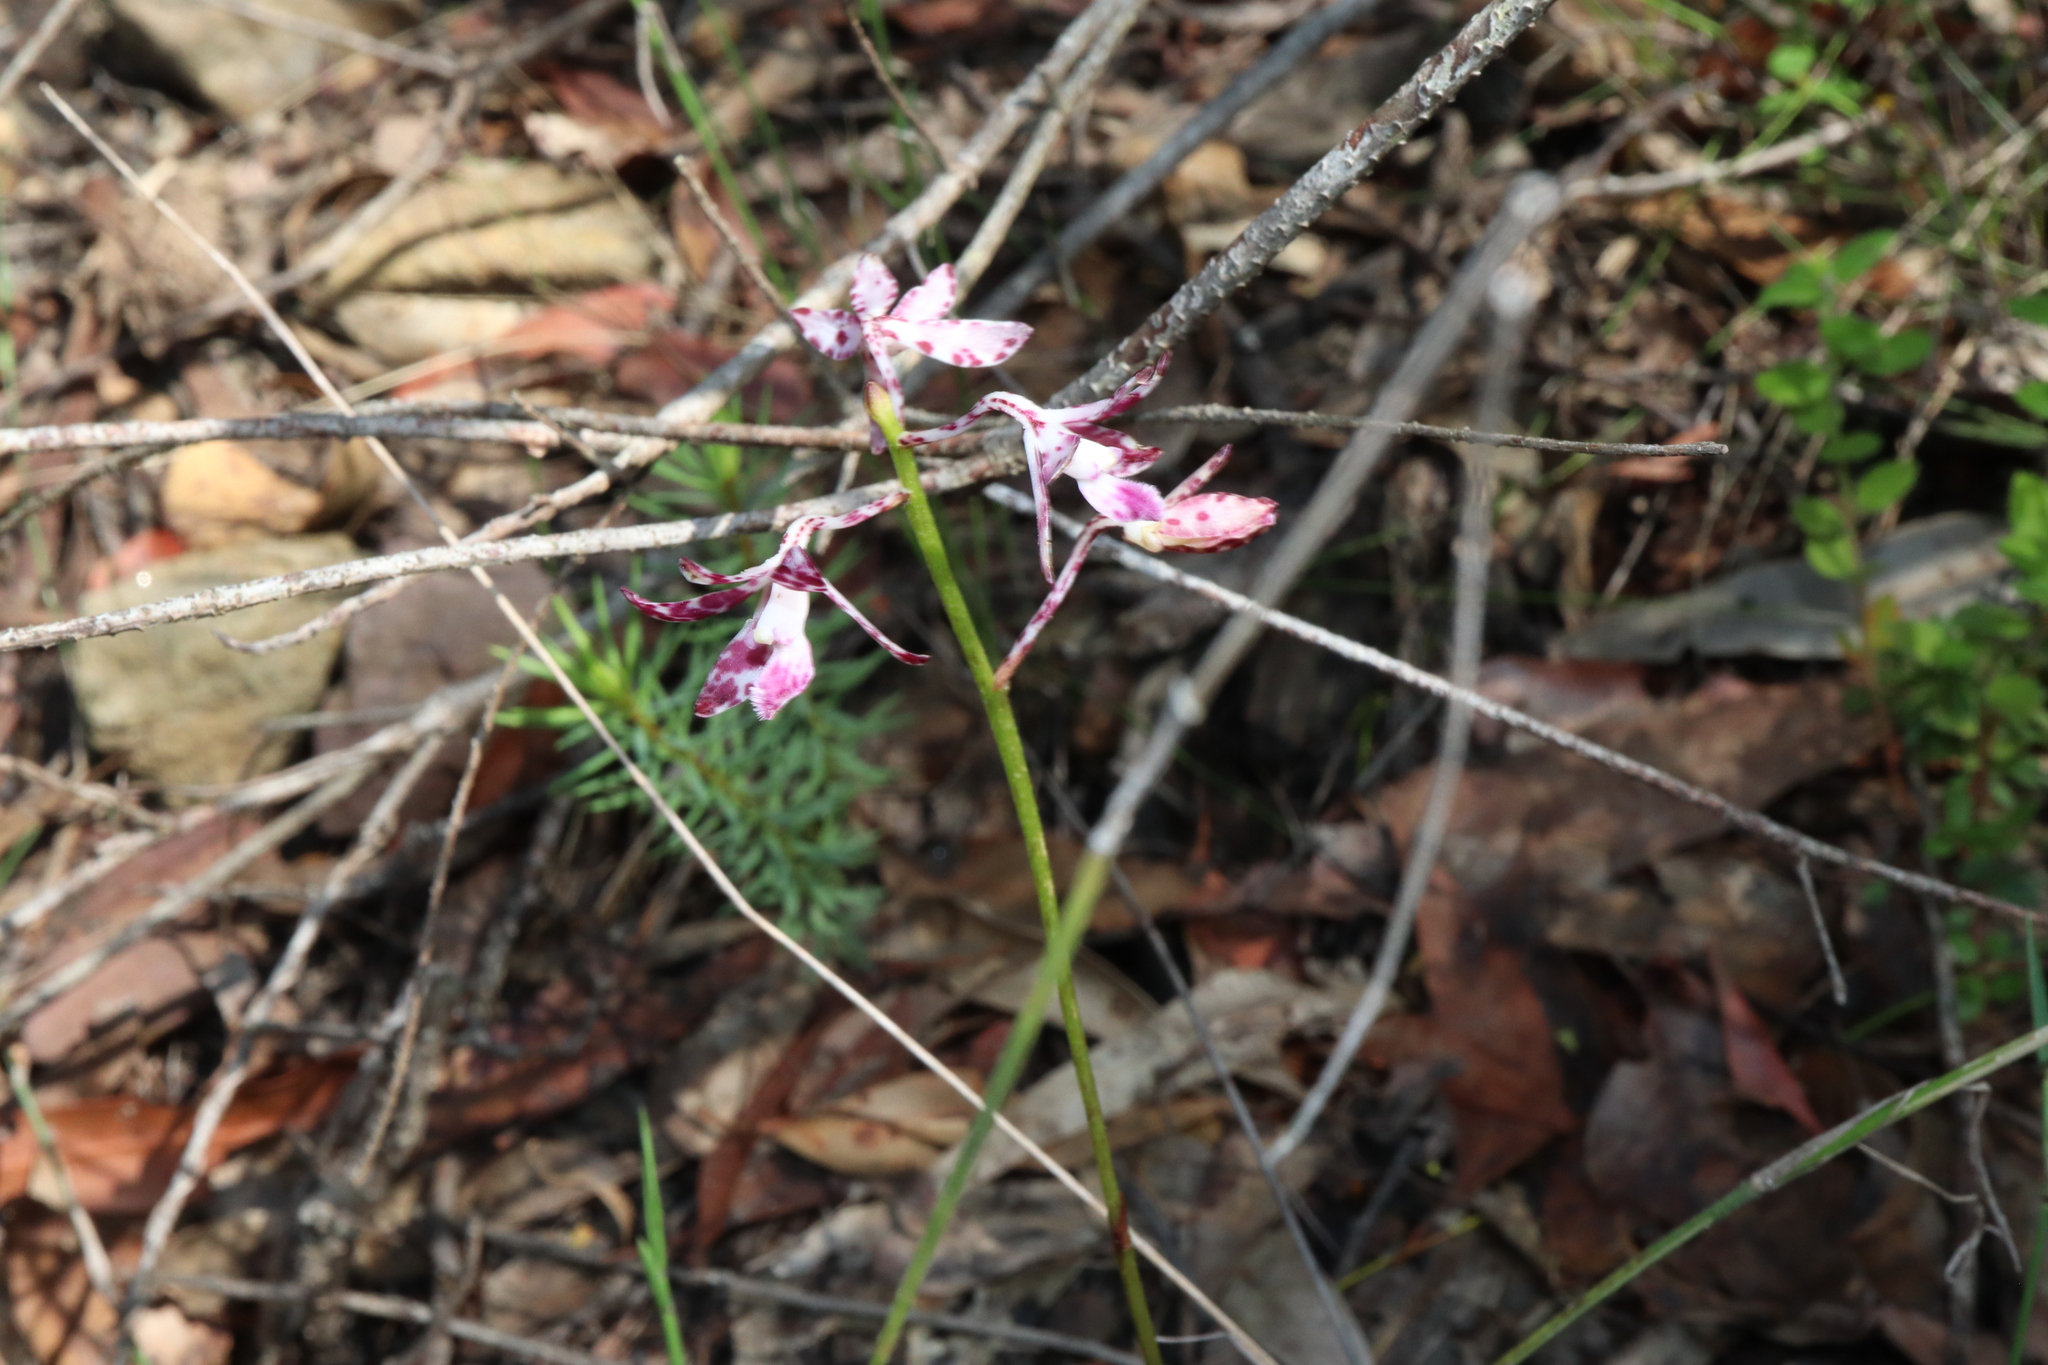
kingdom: Plantae
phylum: Tracheophyta
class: Liliopsida
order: Asparagales
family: Orchidaceae
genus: Dipodium
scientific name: Dipodium variegatum
